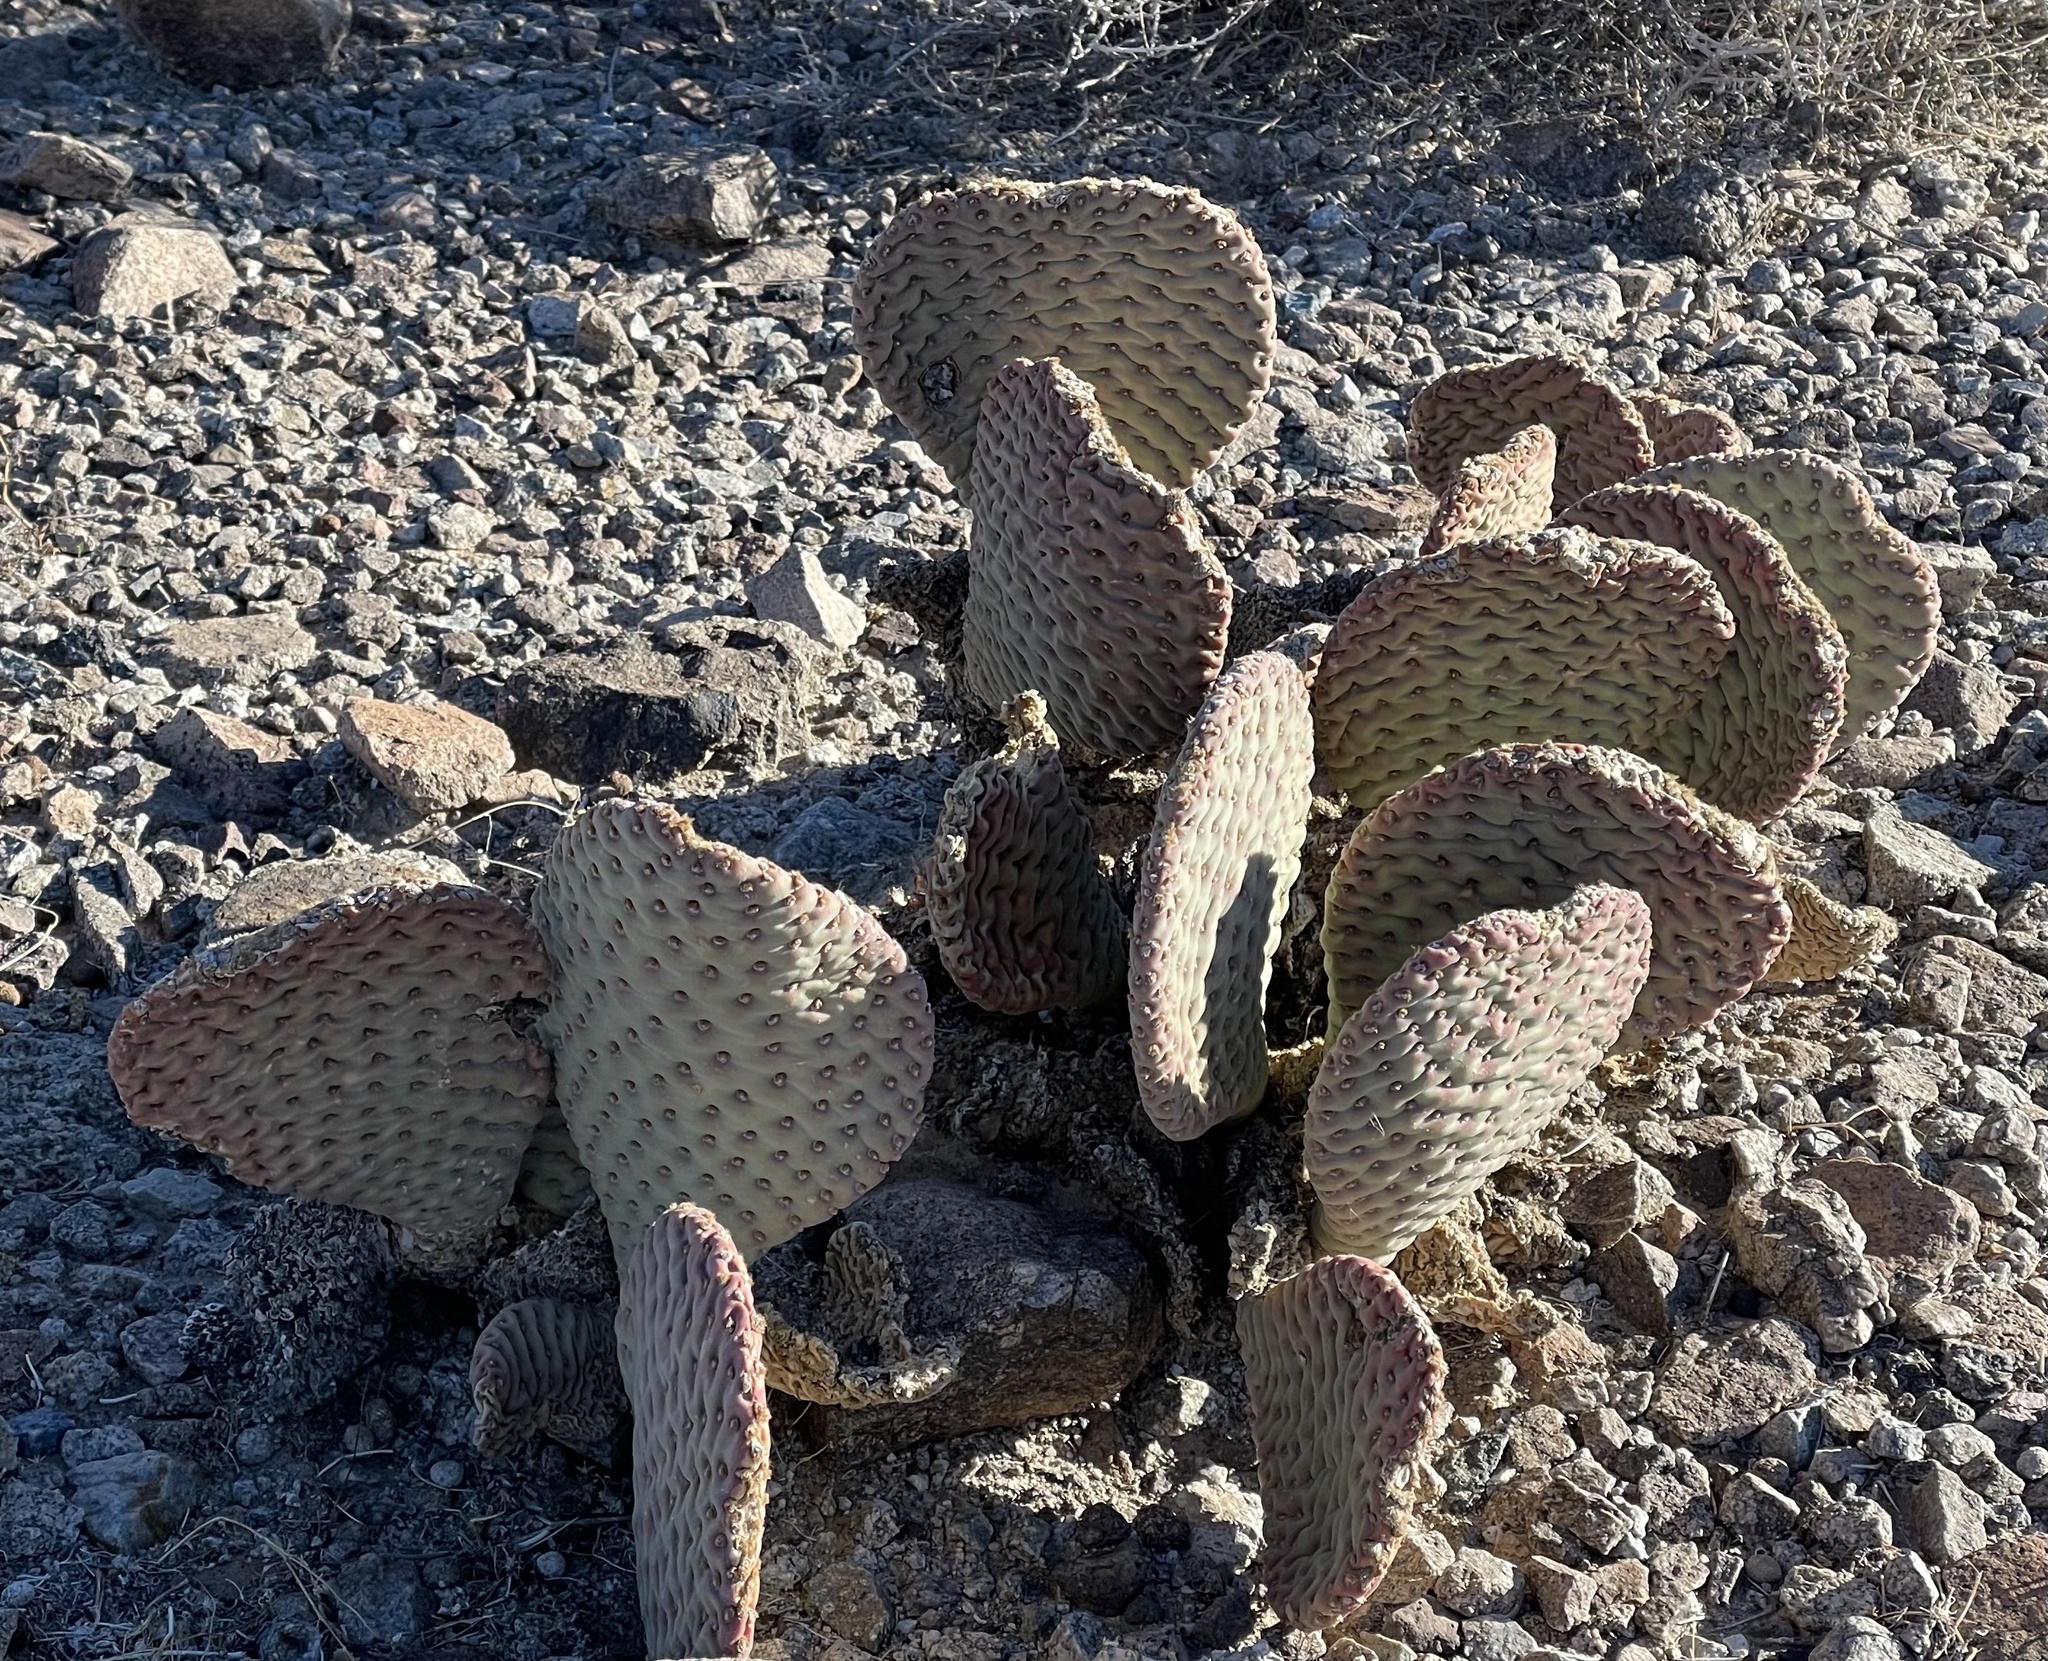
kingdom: Plantae
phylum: Tracheophyta
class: Magnoliopsida
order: Caryophyllales
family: Cactaceae
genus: Opuntia
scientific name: Opuntia basilaris
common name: Beavertail prickly-pear
